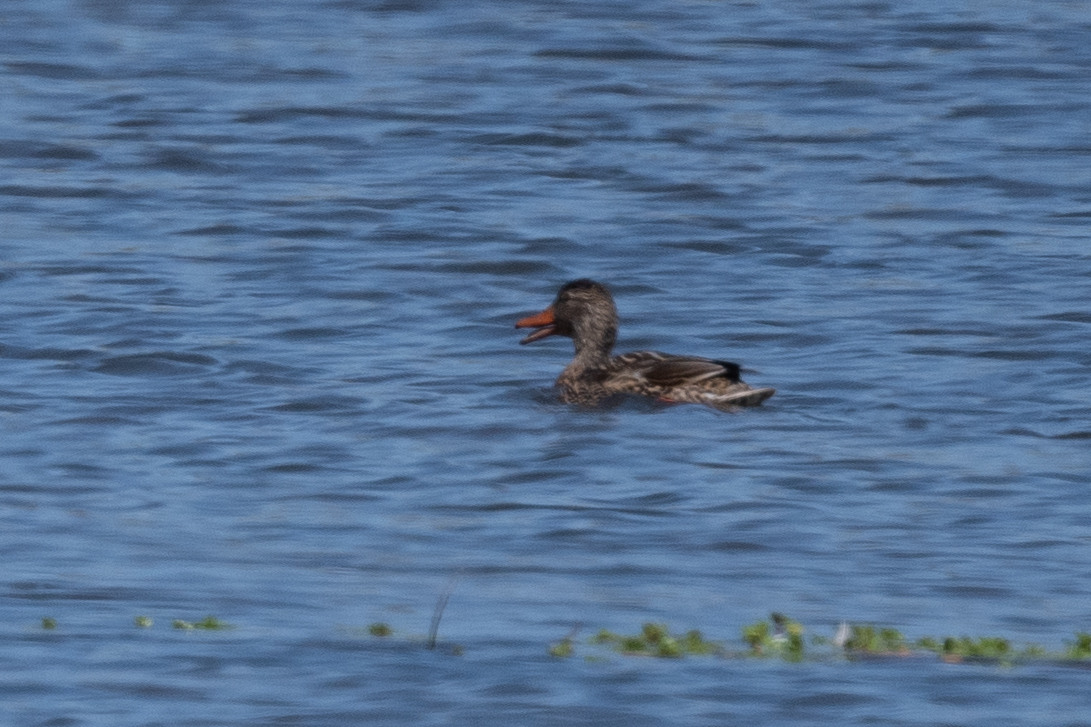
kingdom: Animalia
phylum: Chordata
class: Aves
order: Anseriformes
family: Anatidae
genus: Mareca
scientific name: Mareca strepera
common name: Gadwall
